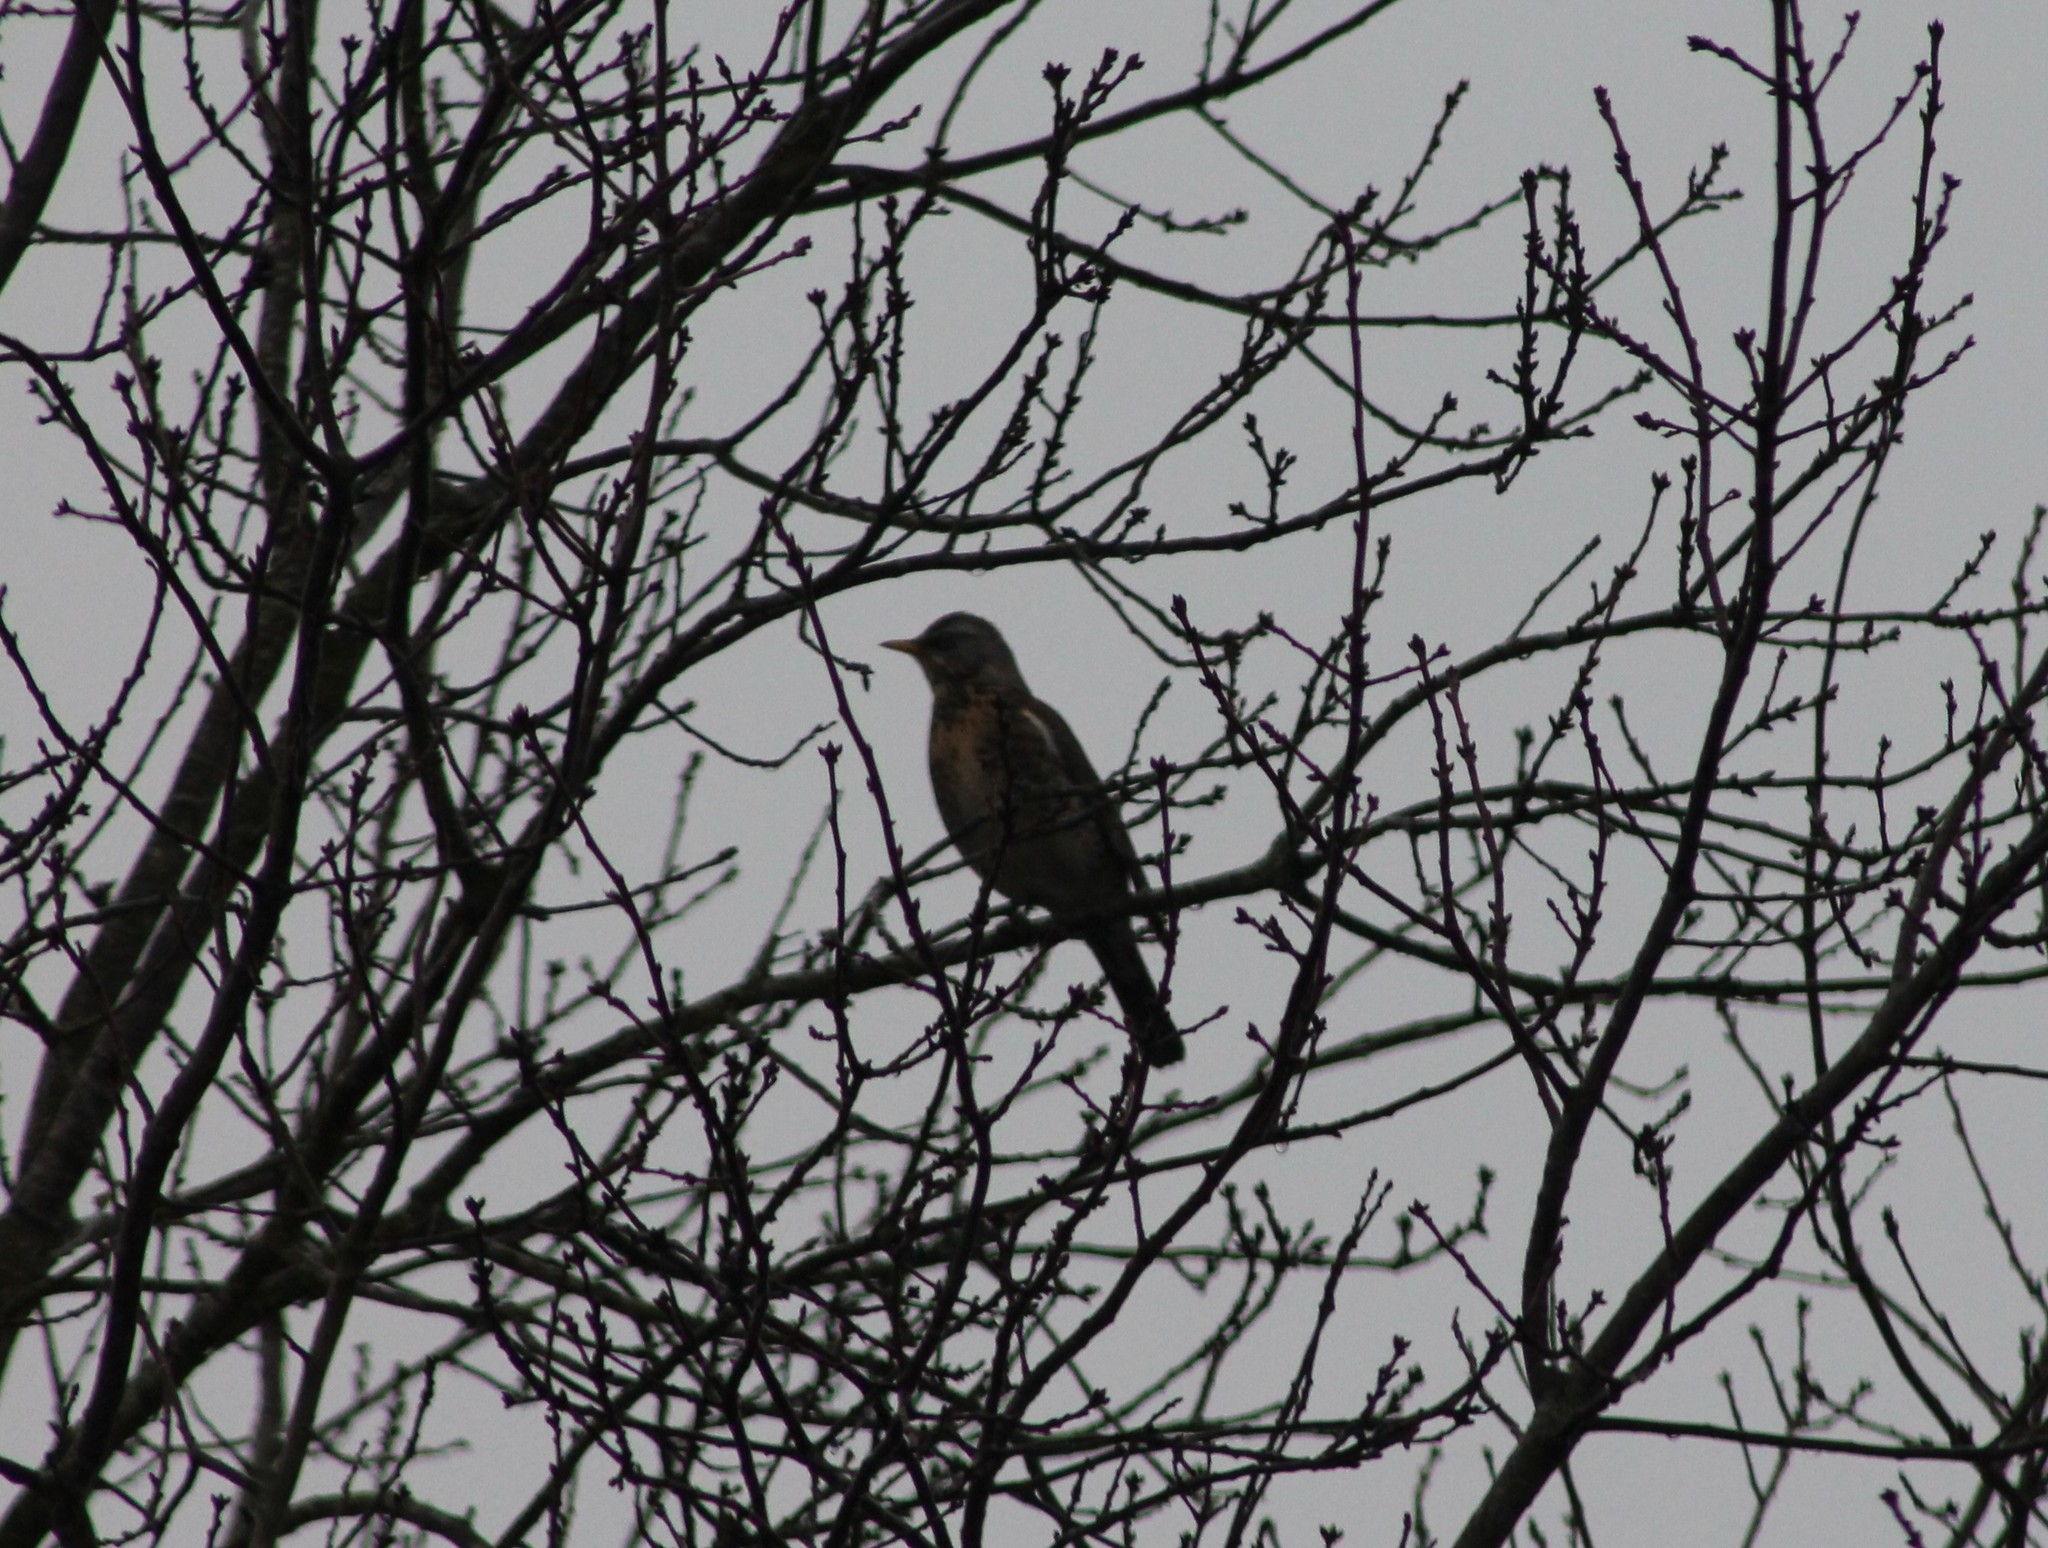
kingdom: Animalia
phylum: Chordata
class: Aves
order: Passeriformes
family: Turdidae
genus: Turdus
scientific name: Turdus pilaris
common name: Fieldfare
